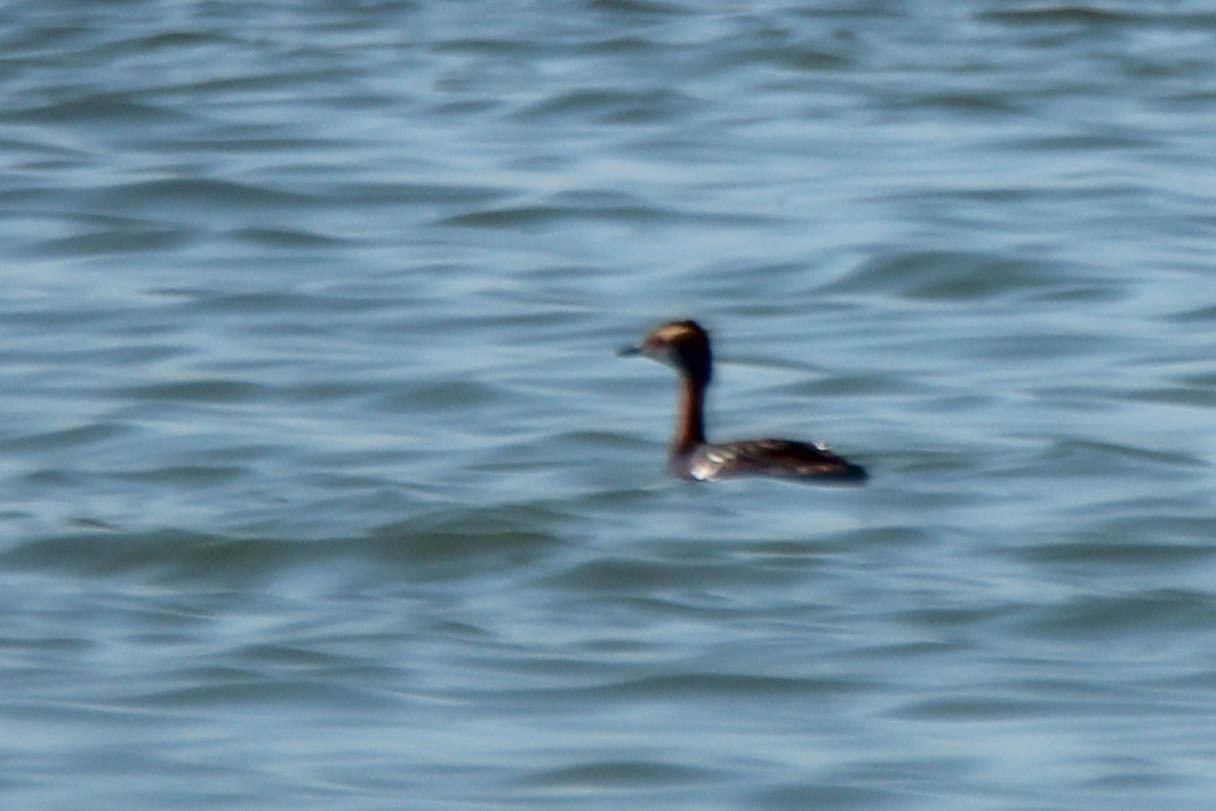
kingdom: Animalia
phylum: Chordata
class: Aves
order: Podicipediformes
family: Podicipedidae
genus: Podiceps
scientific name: Podiceps auritus
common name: Horned grebe
